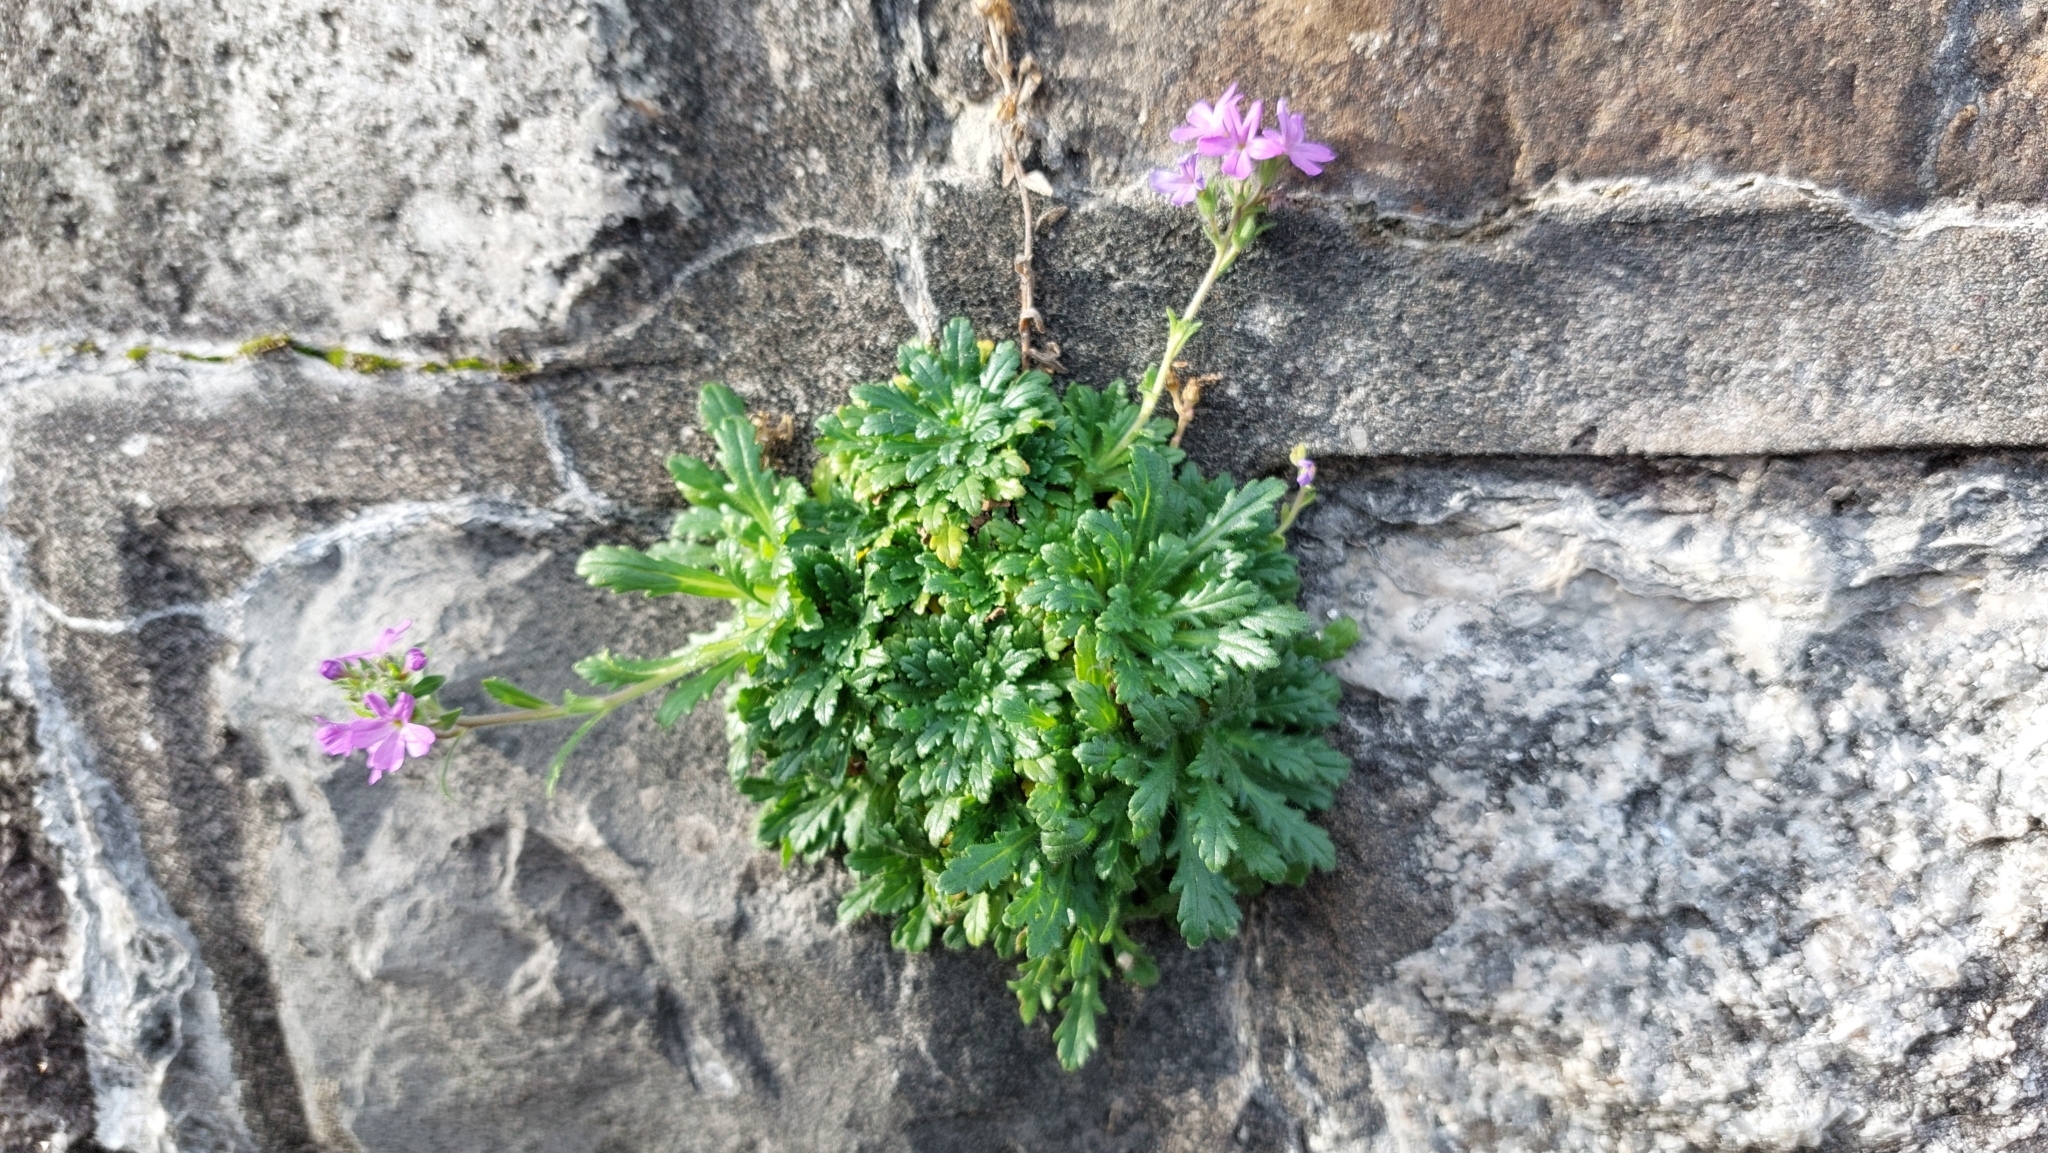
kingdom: Plantae
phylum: Tracheophyta
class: Magnoliopsida
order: Lamiales
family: Plantaginaceae
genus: Erinus
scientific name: Erinus alpinus
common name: Fairy foxglove
